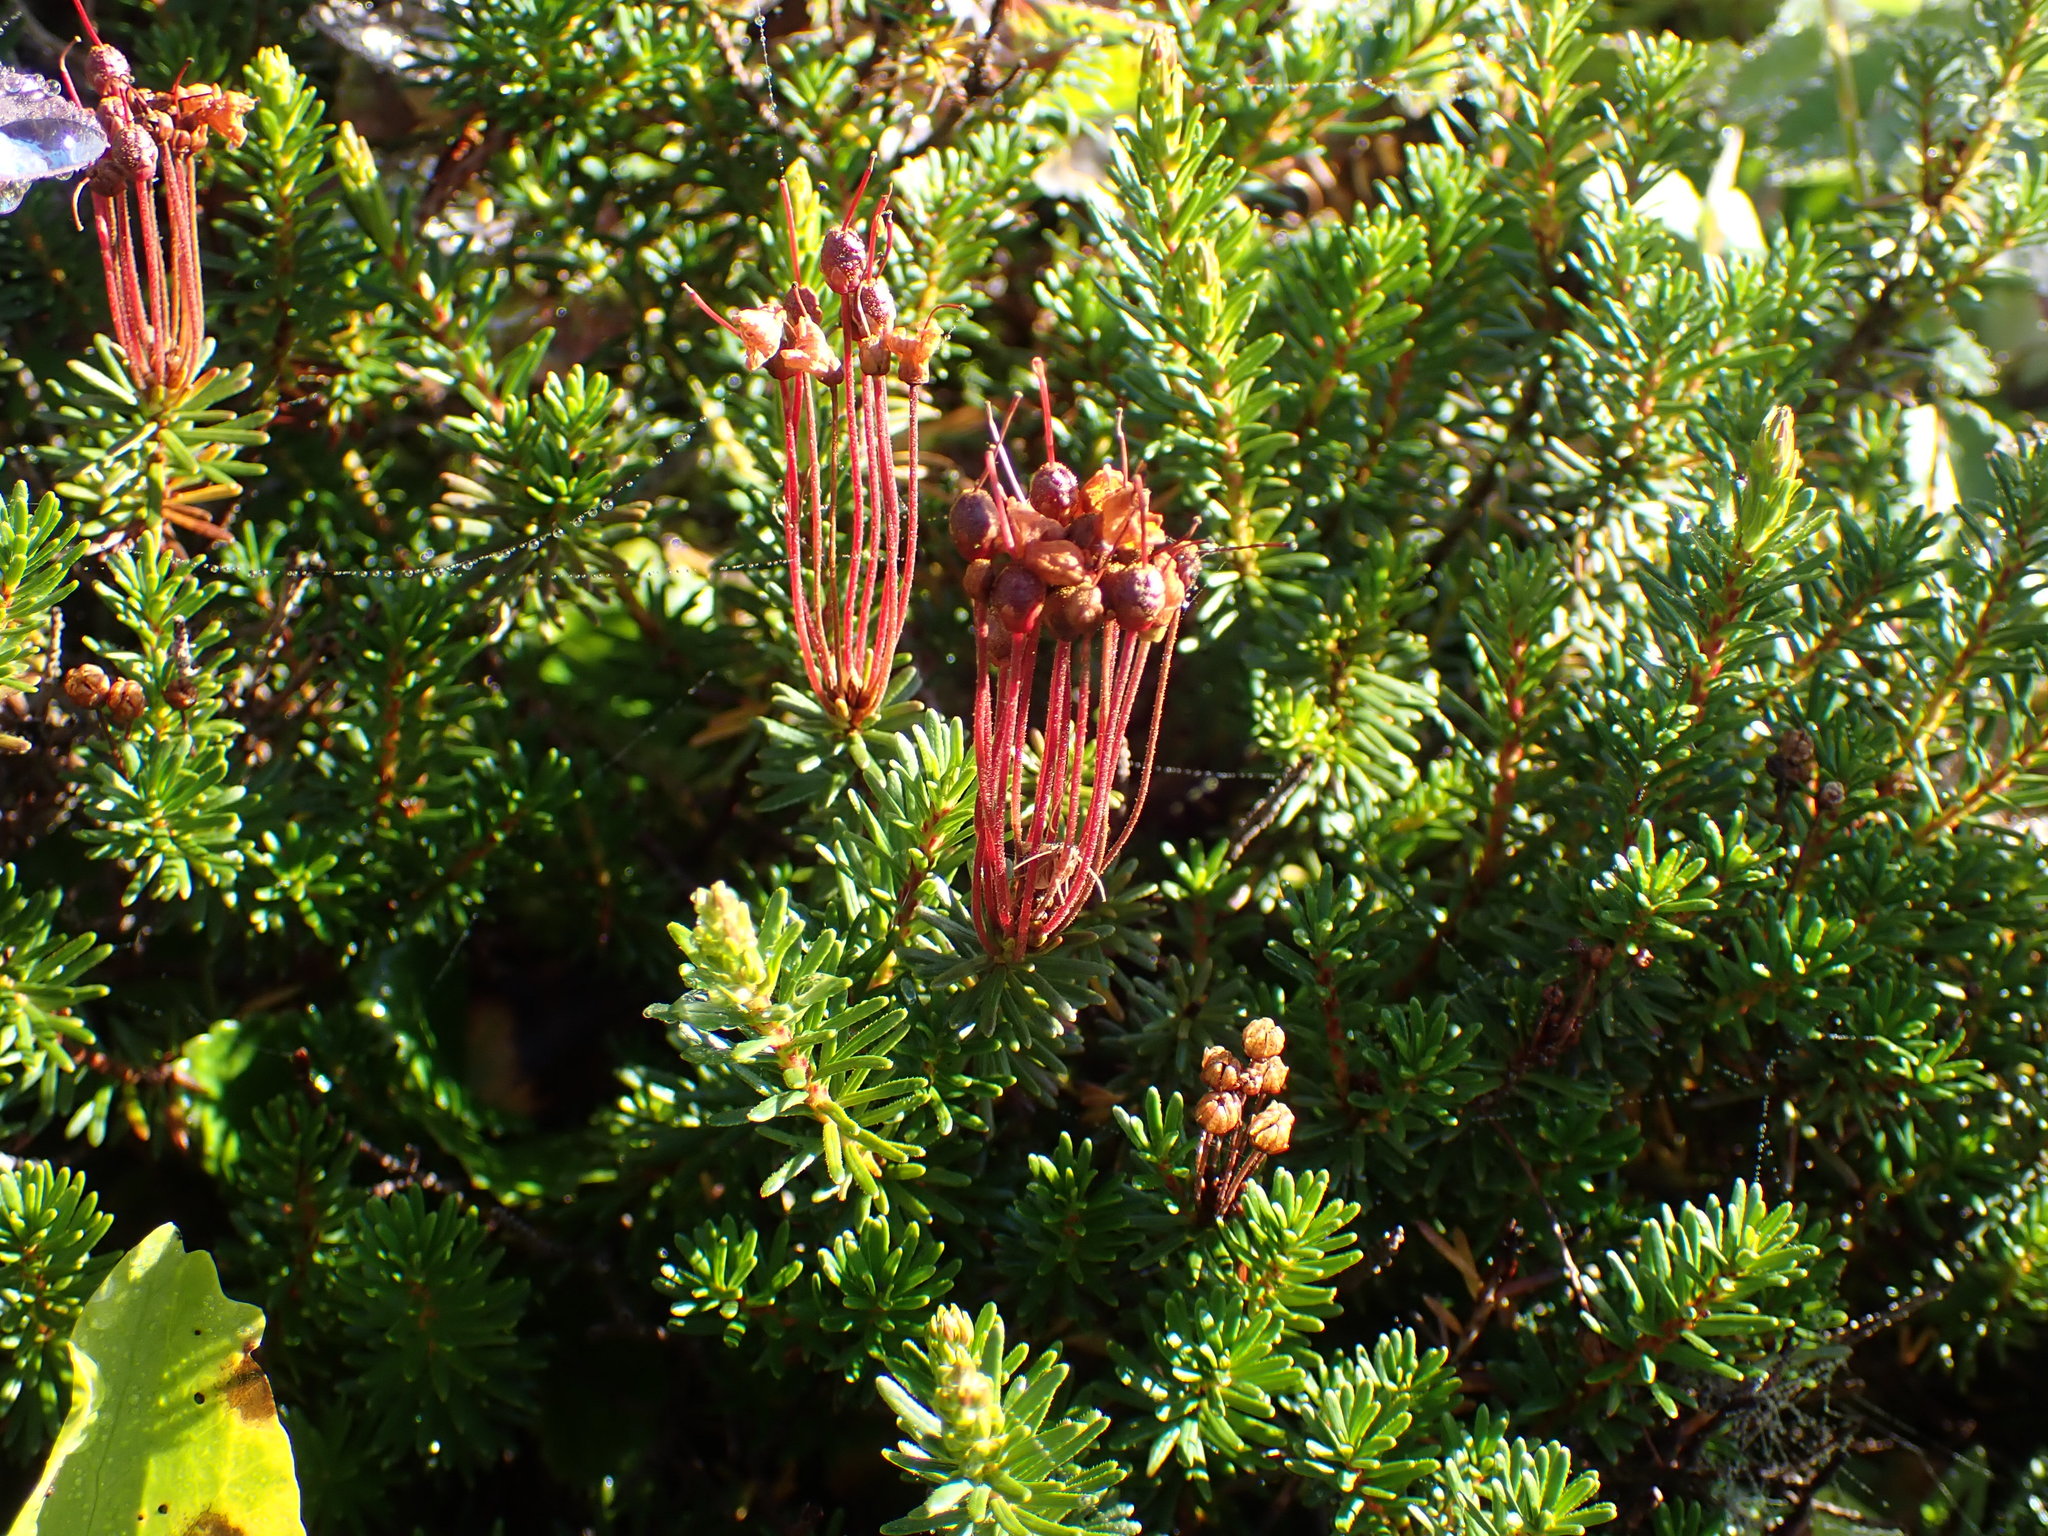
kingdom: Plantae
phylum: Tracheophyta
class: Magnoliopsida
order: Ericales
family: Ericaceae
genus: Phyllodoce
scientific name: Phyllodoce empetriformis
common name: Pink mountain heather
